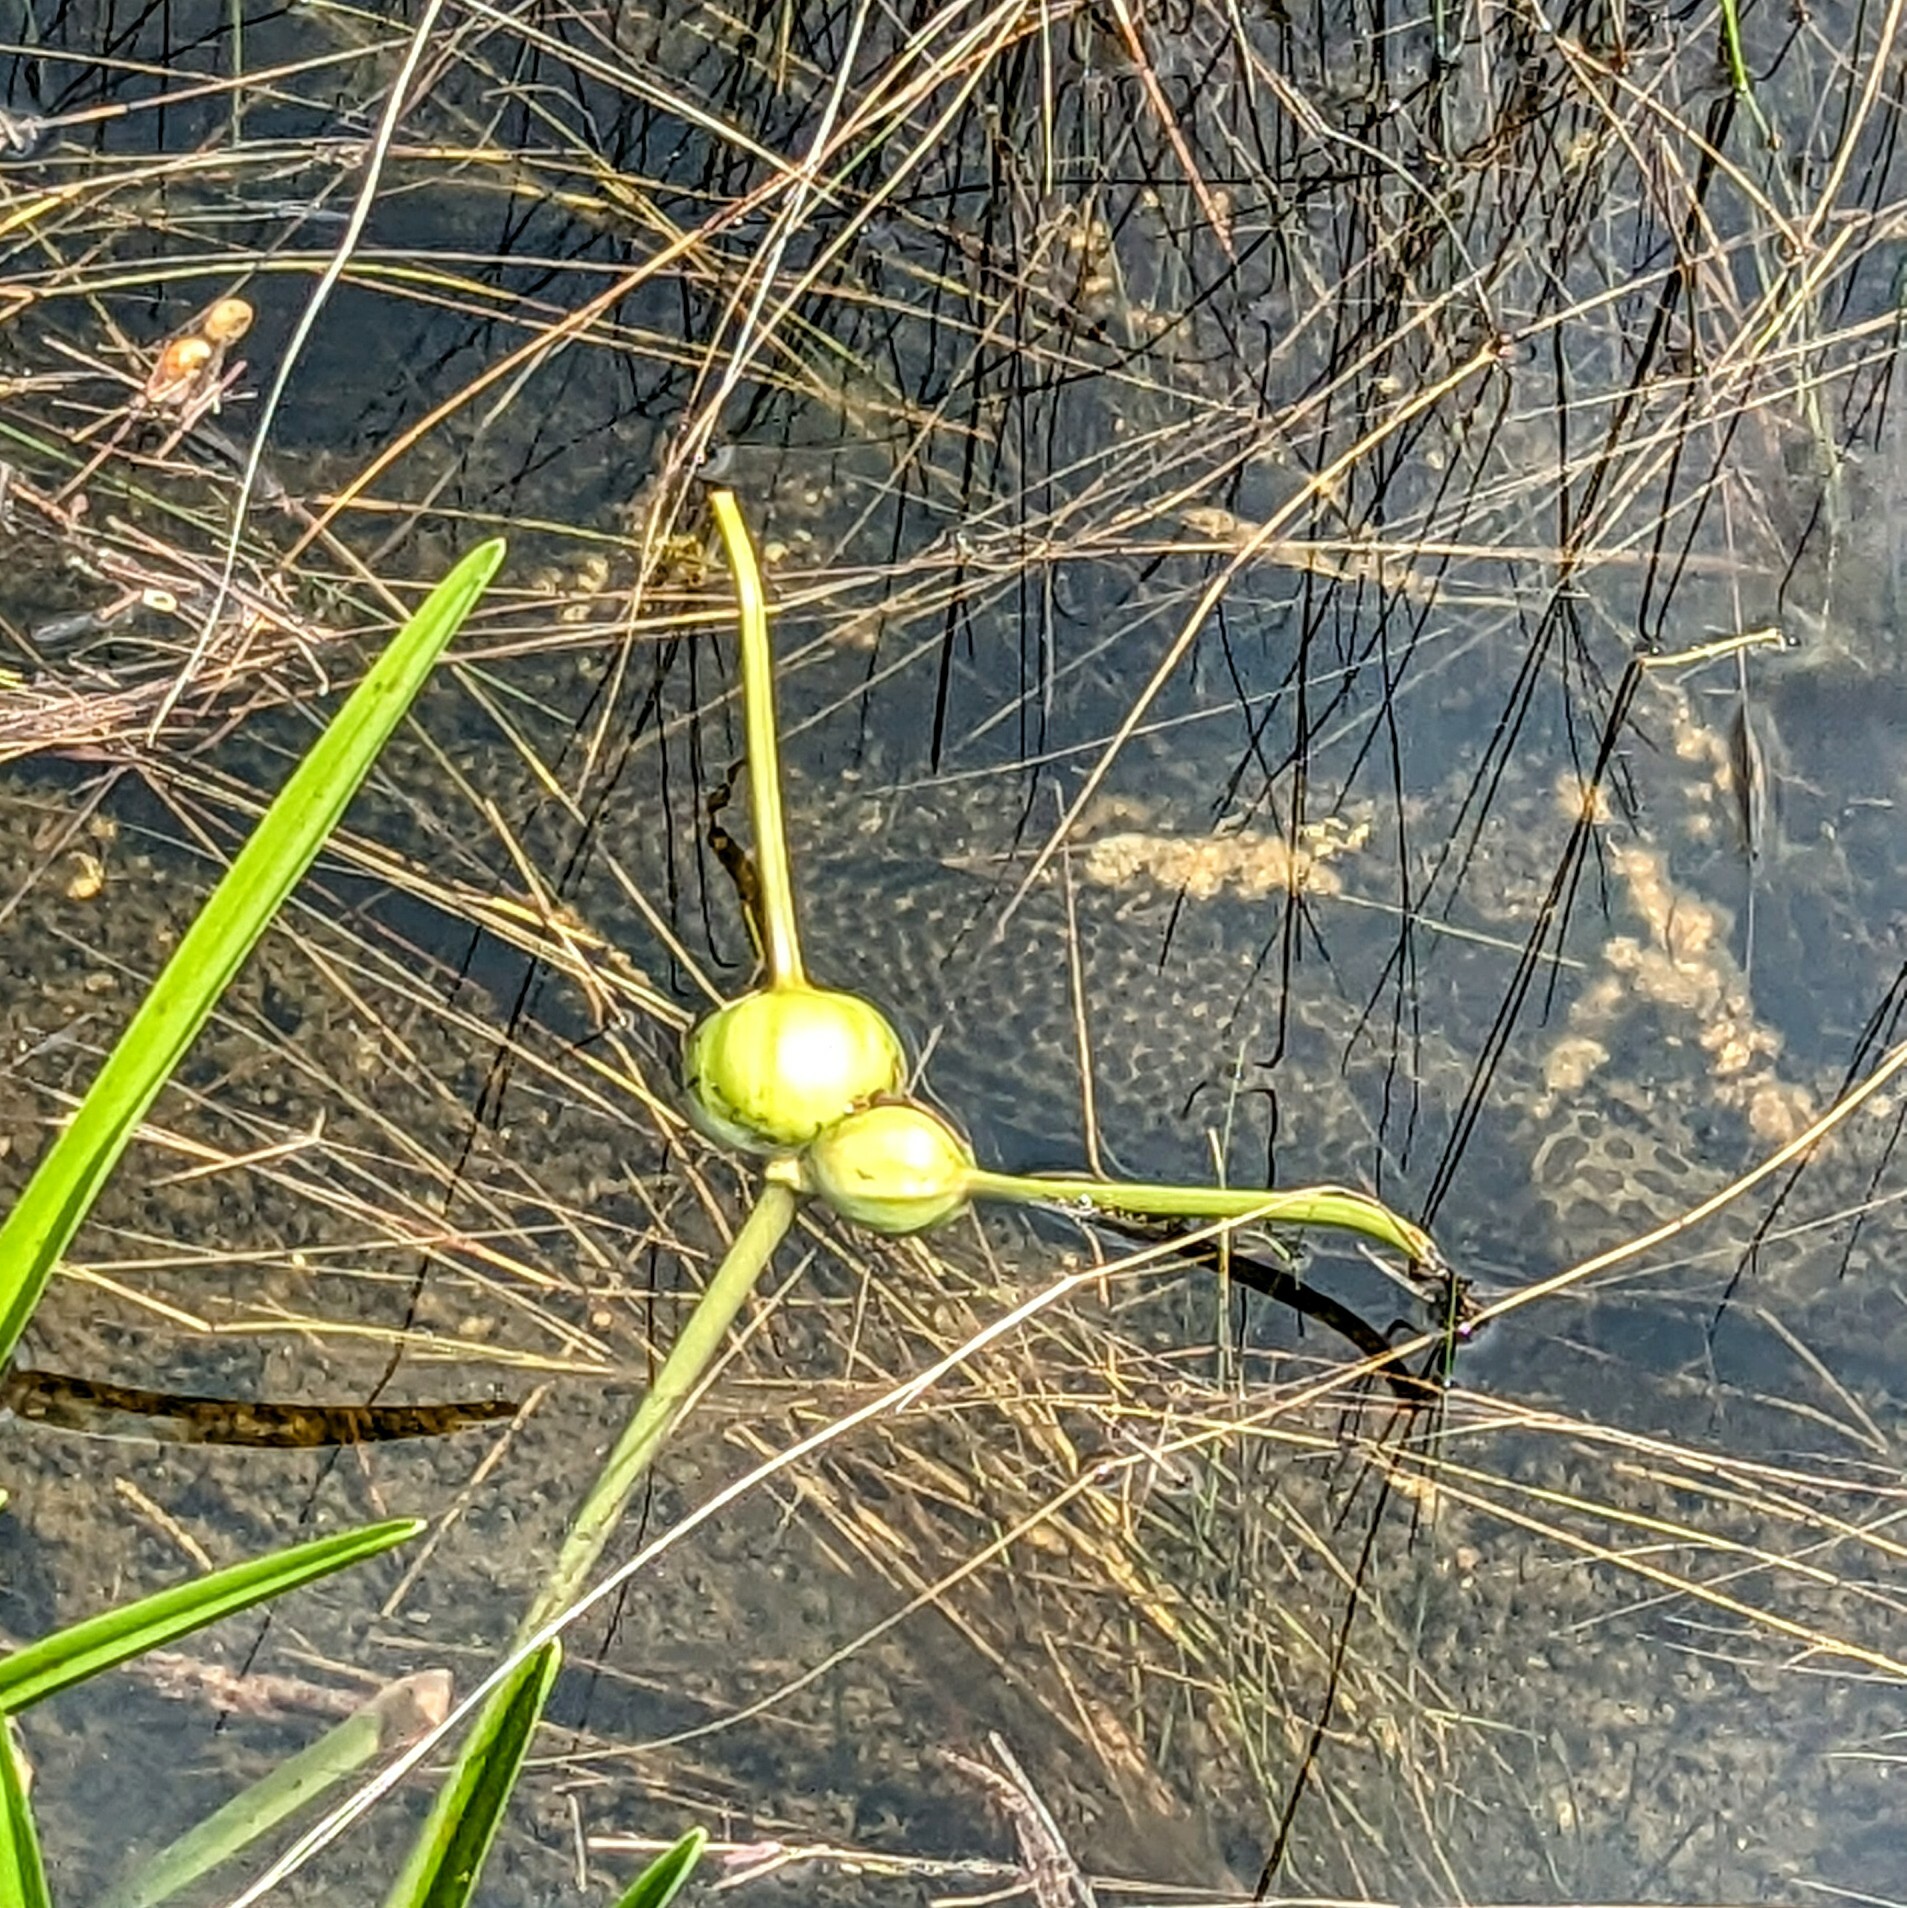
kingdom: Animalia
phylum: Chordata
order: Lepisosteiformes
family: Lepisosteidae
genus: Lepisosteus
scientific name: Lepisosteus platyrhincus
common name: Florida gar
